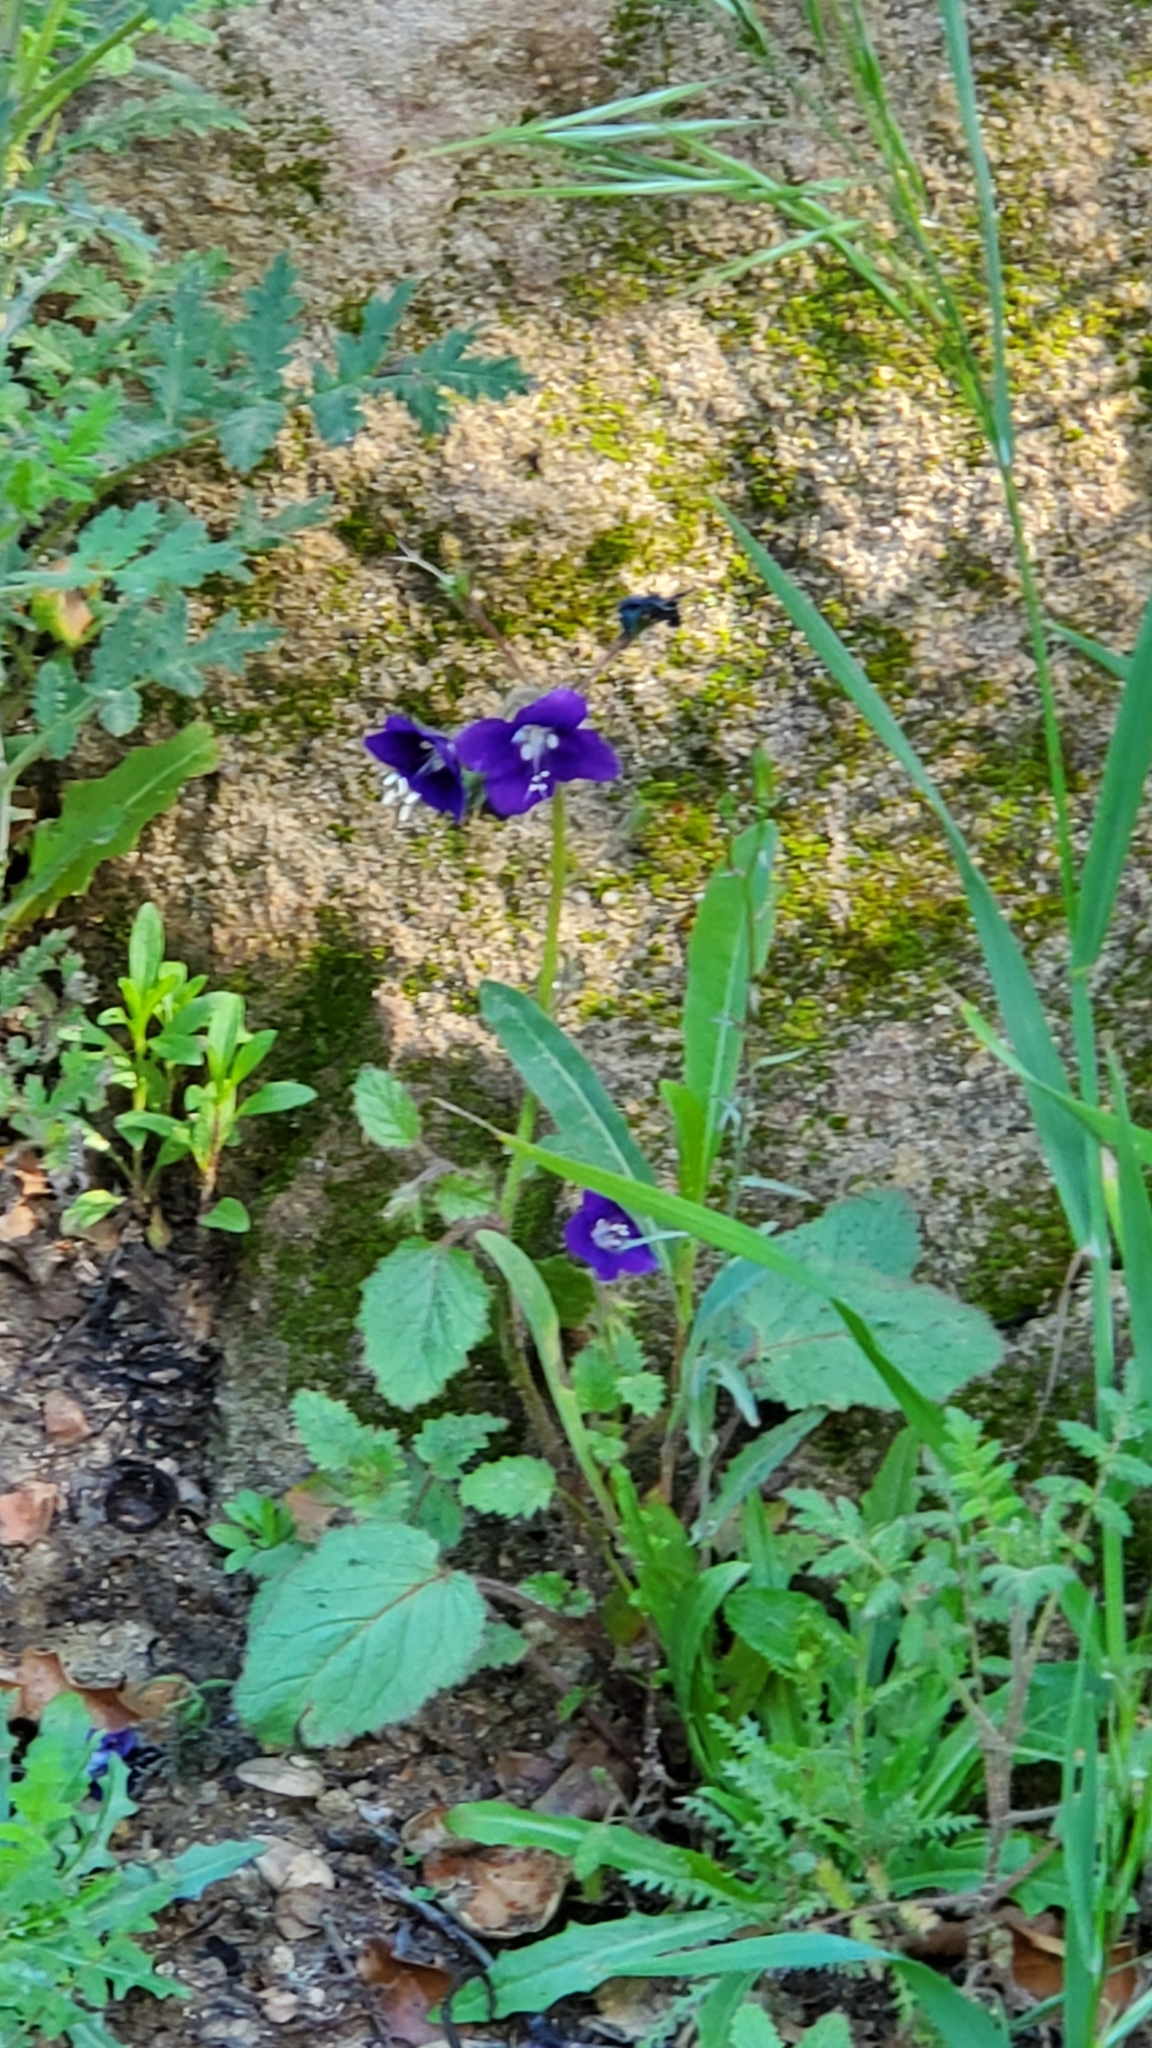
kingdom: Plantae
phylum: Tracheophyta
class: Magnoliopsida
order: Boraginales
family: Hydrophyllaceae
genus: Phacelia
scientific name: Phacelia parryi
